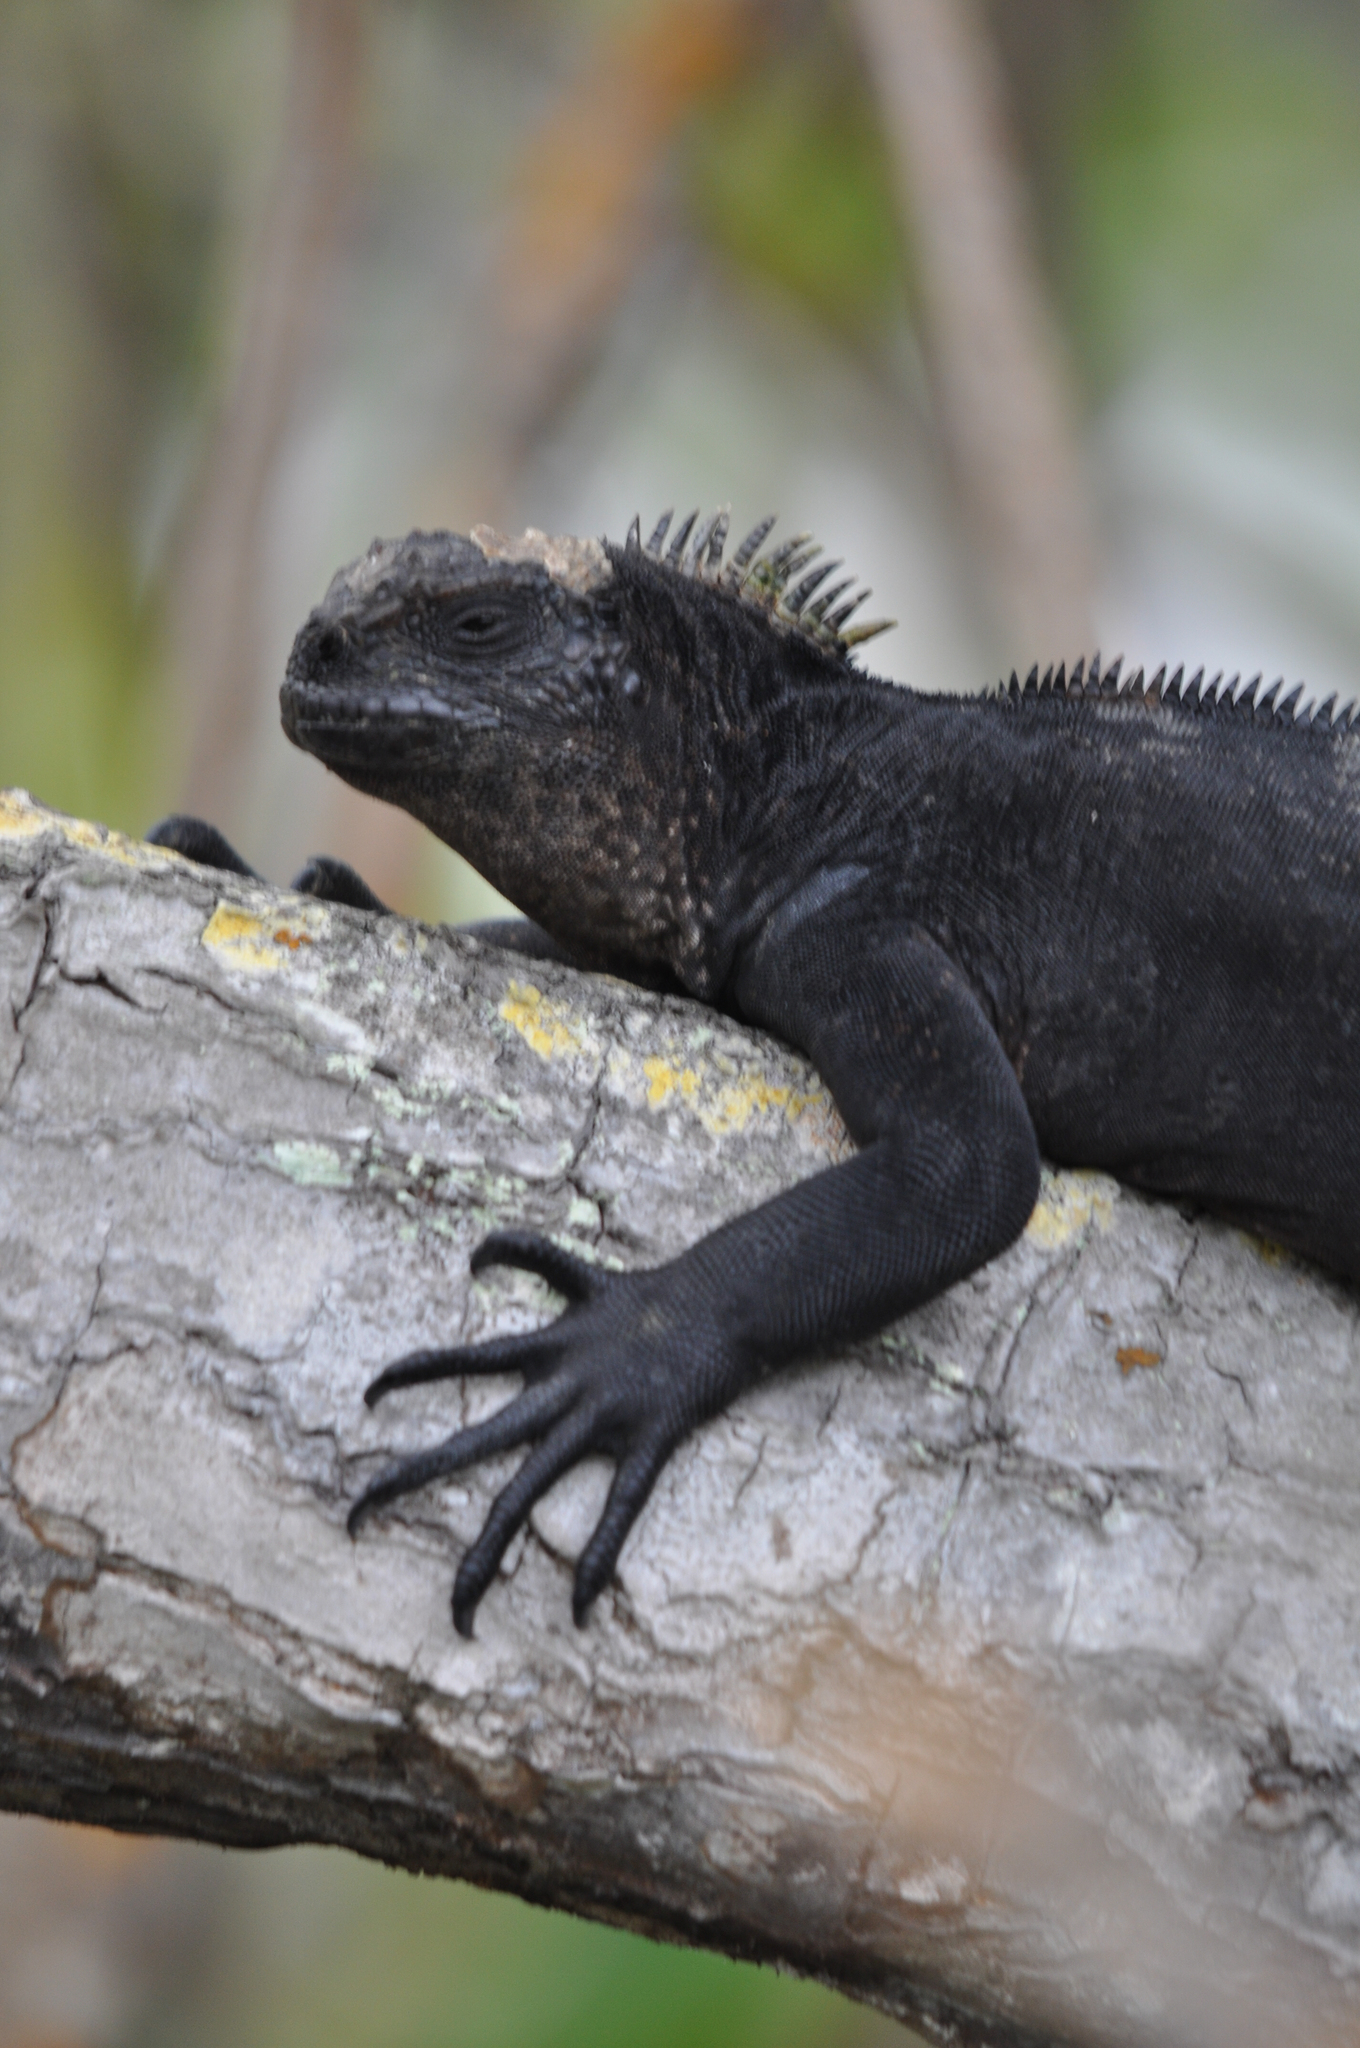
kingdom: Animalia
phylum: Chordata
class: Squamata
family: Iguanidae
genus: Amblyrhynchus
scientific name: Amblyrhynchus cristatus
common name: Marine iguana
